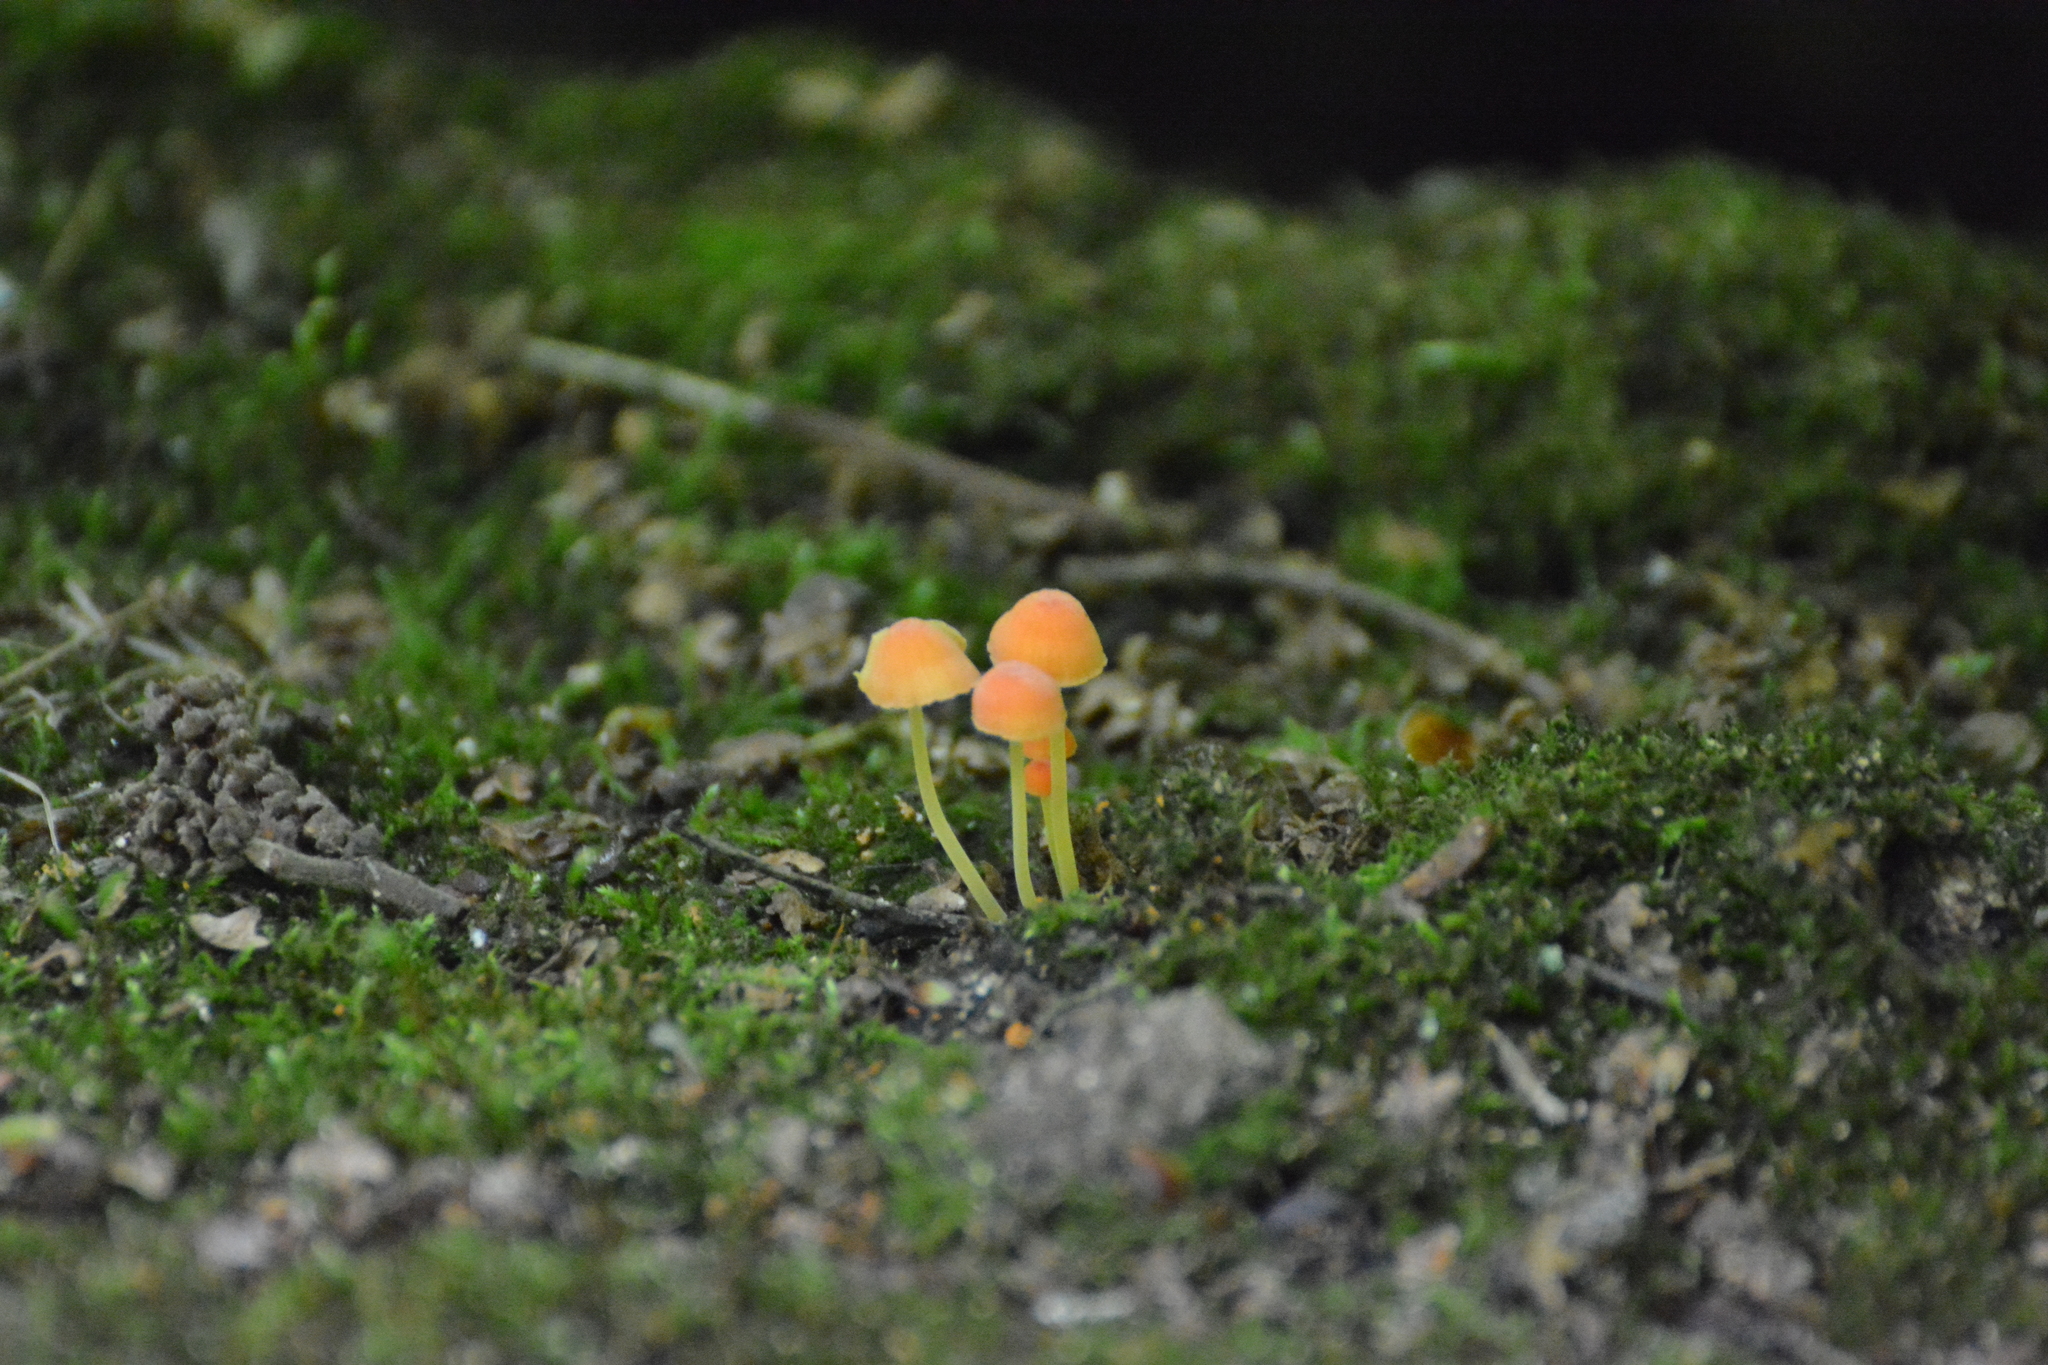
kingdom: Fungi
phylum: Basidiomycota
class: Agaricomycetes
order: Agaricales
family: Mycenaceae
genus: Mycena
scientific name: Mycena acicula
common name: Orange bonnet
